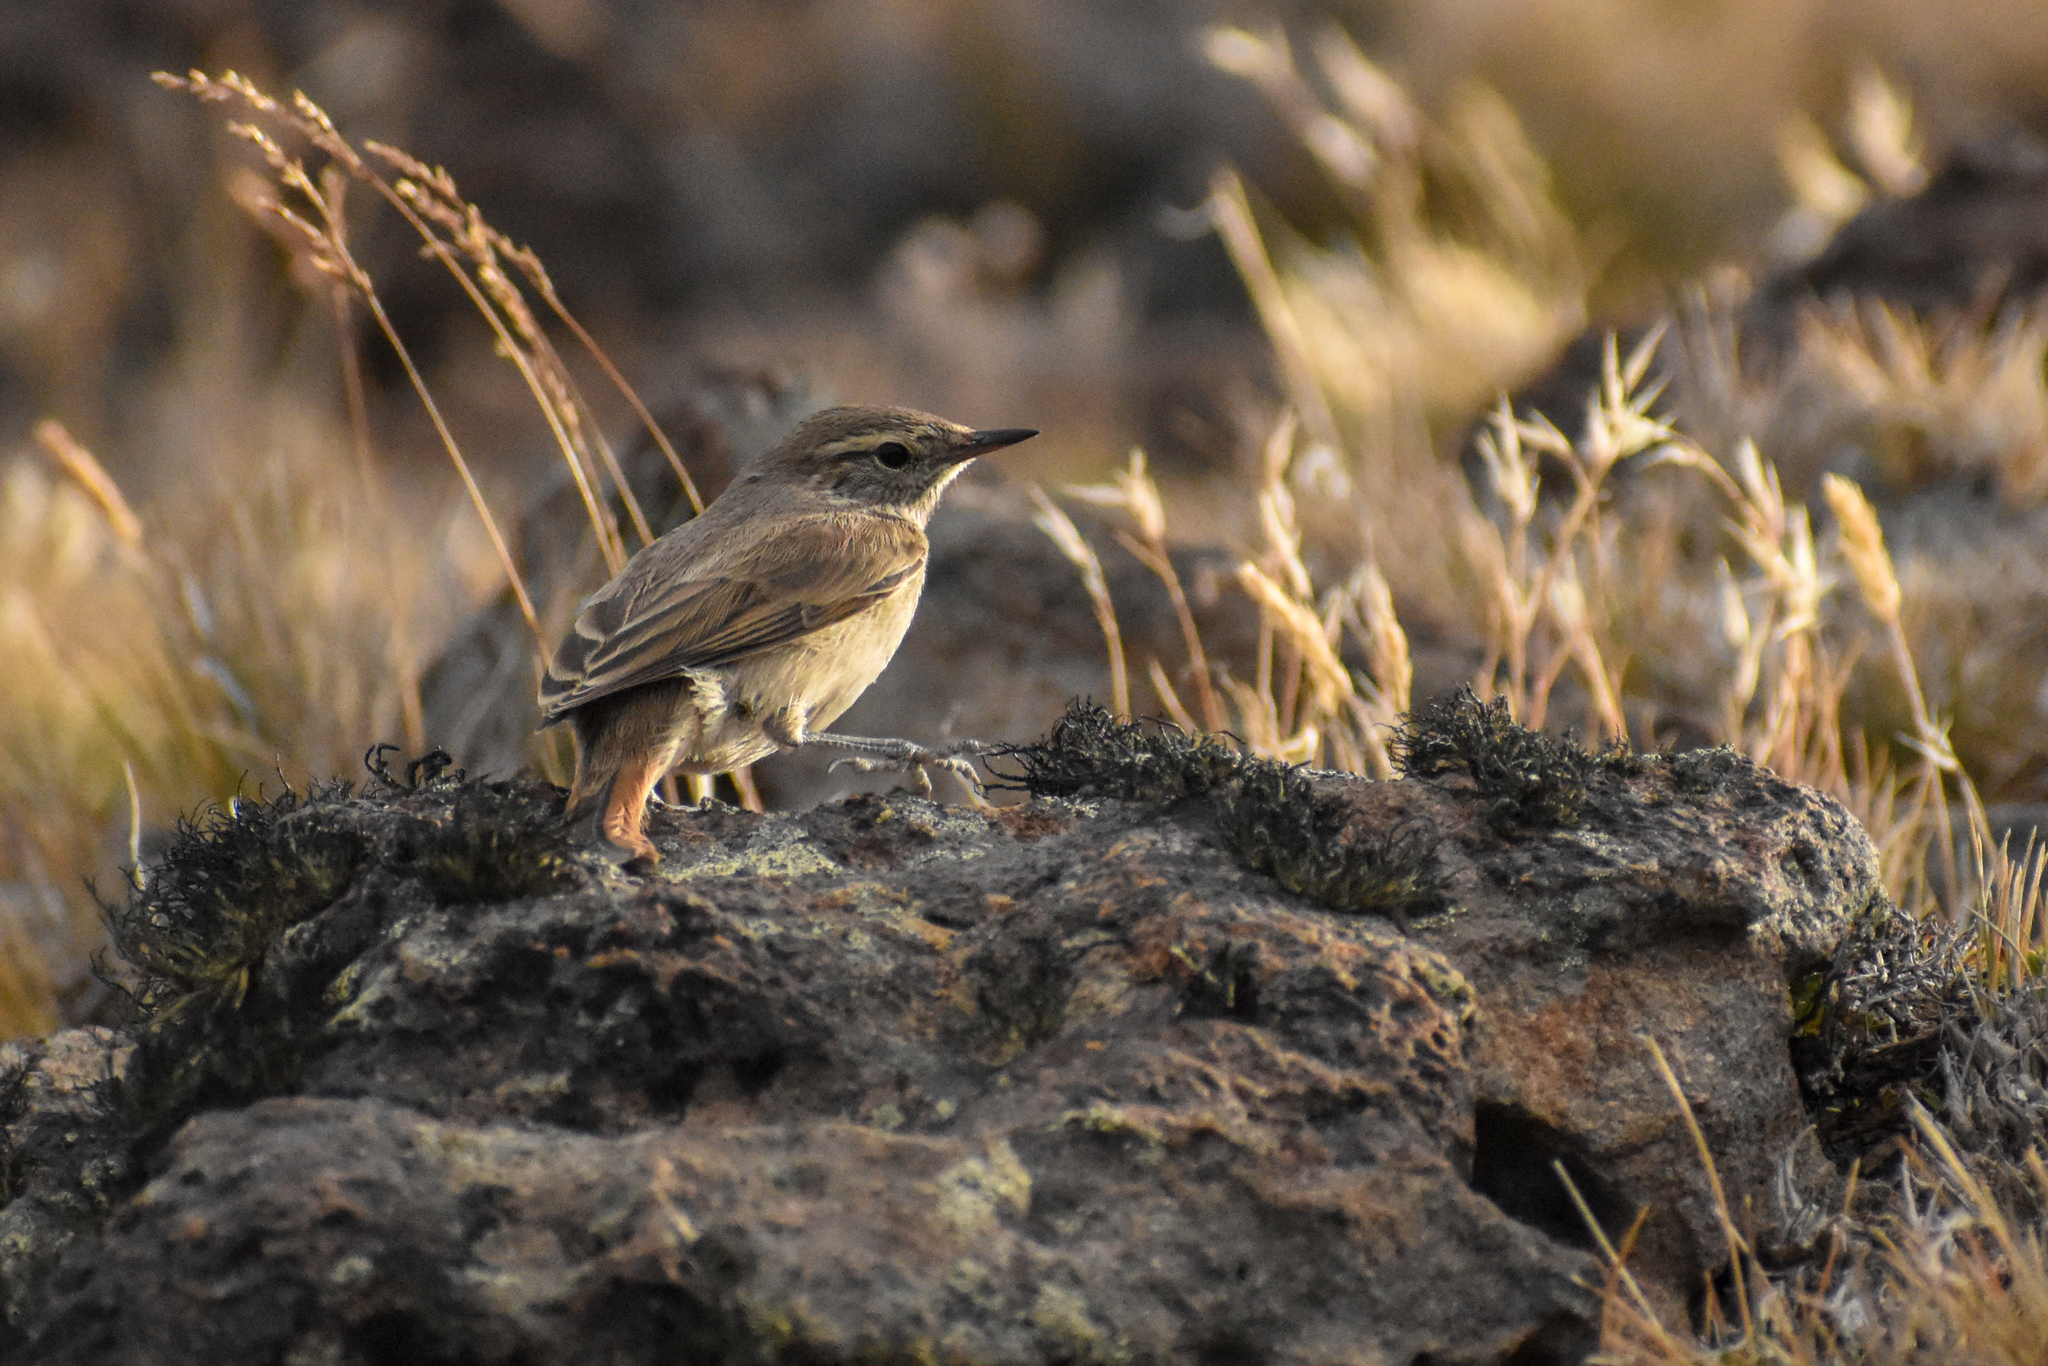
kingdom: Animalia
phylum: Chordata
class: Aves
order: Passeriformes
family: Furnariidae
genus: Asthenes
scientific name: Asthenes modesta
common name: Cordilleran canastero
